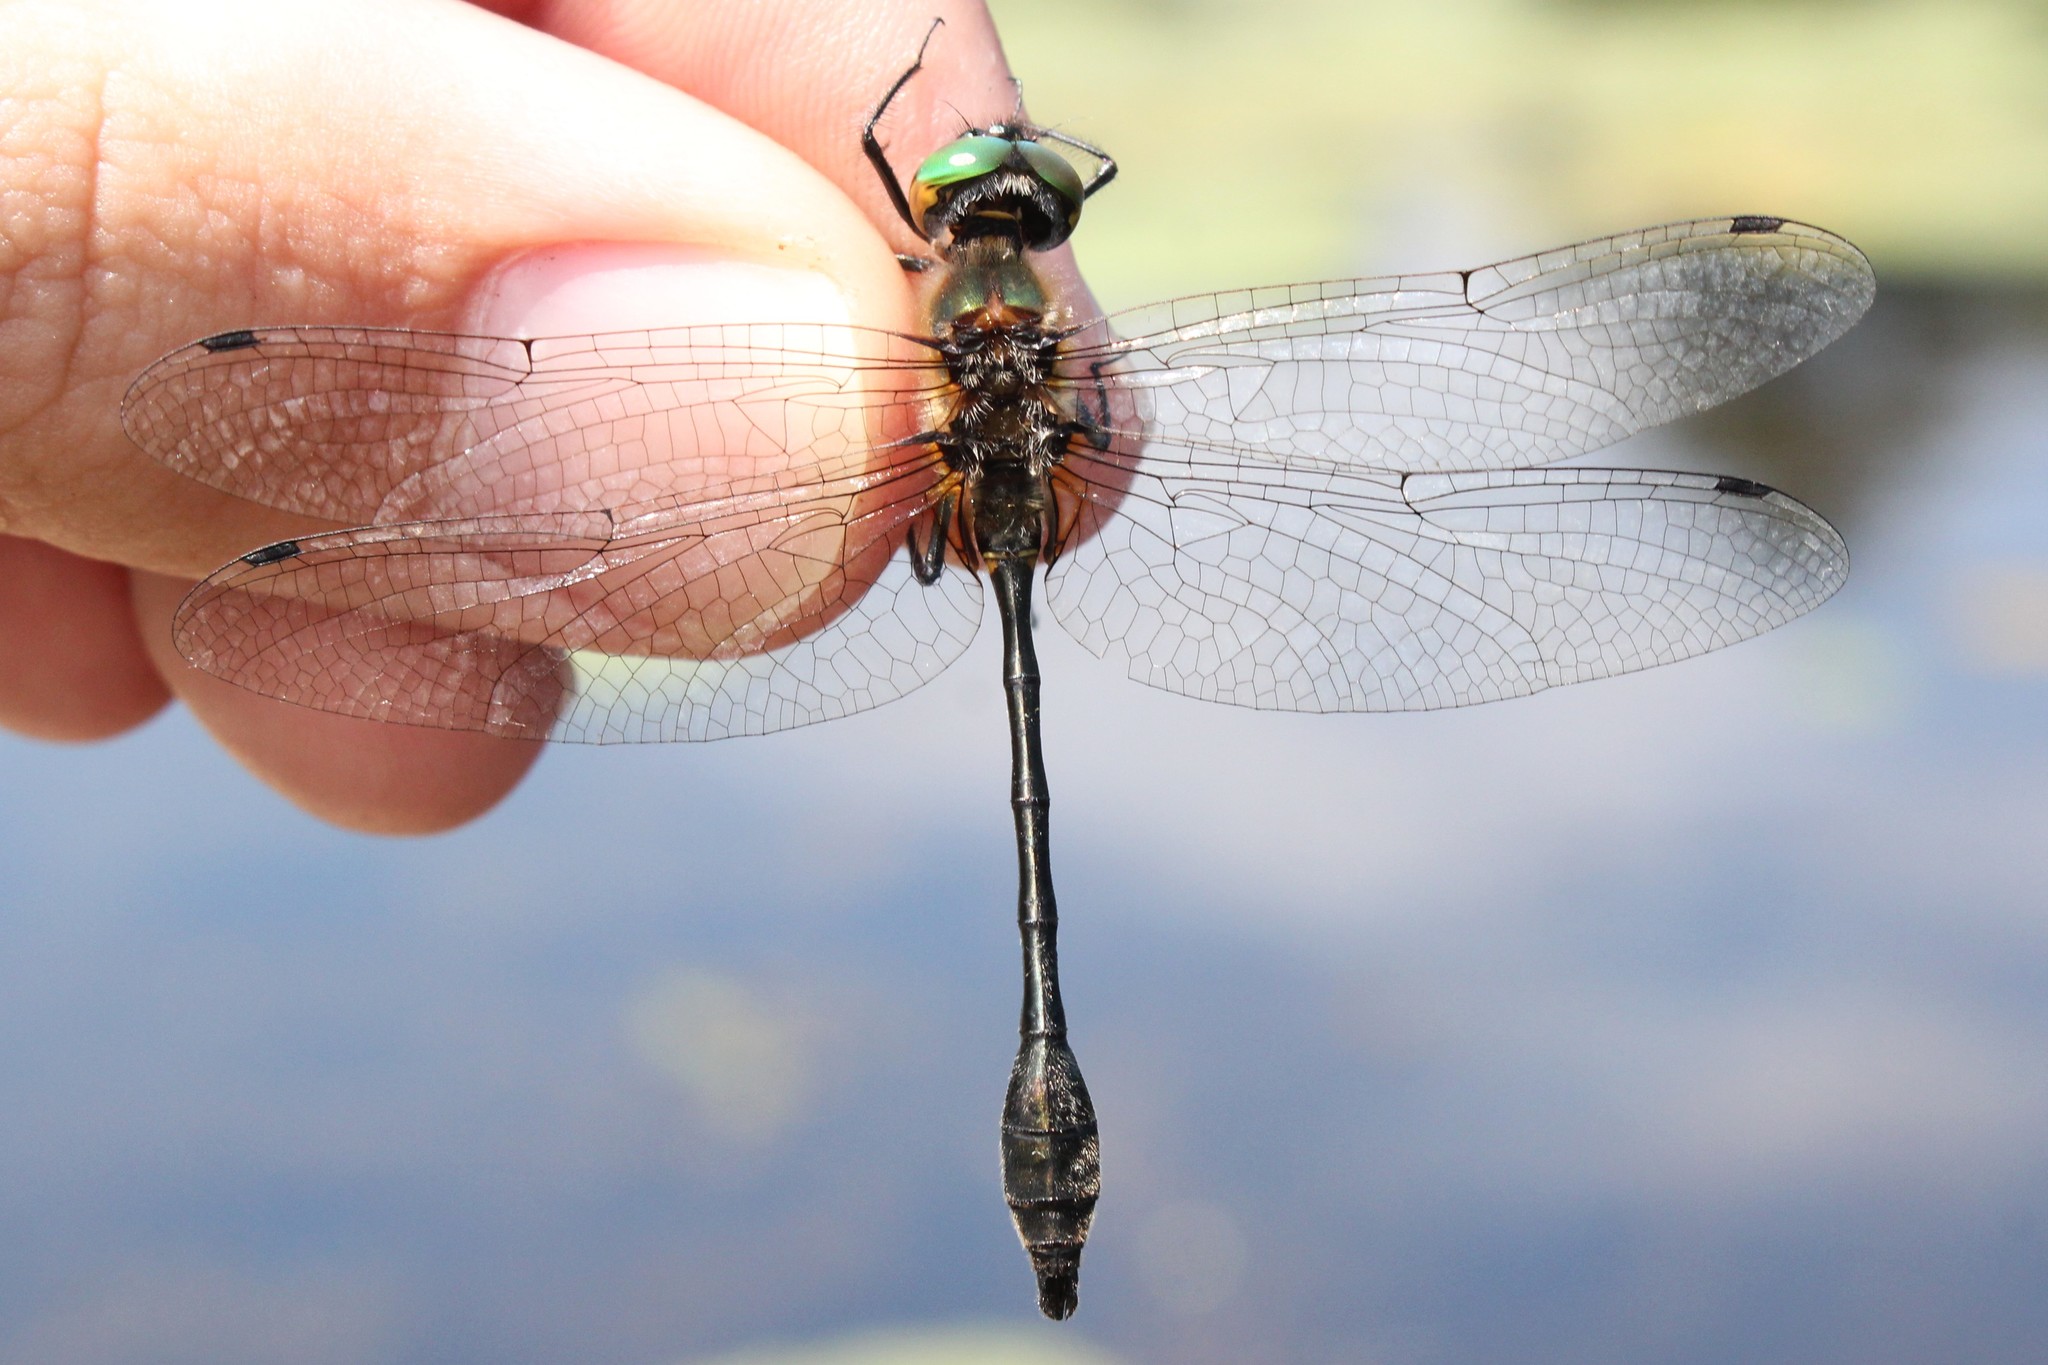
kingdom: Animalia
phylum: Arthropoda
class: Insecta
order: Odonata
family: Corduliidae
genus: Dorocordulia
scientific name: Dorocordulia libera
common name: Racket-tailed emerald
